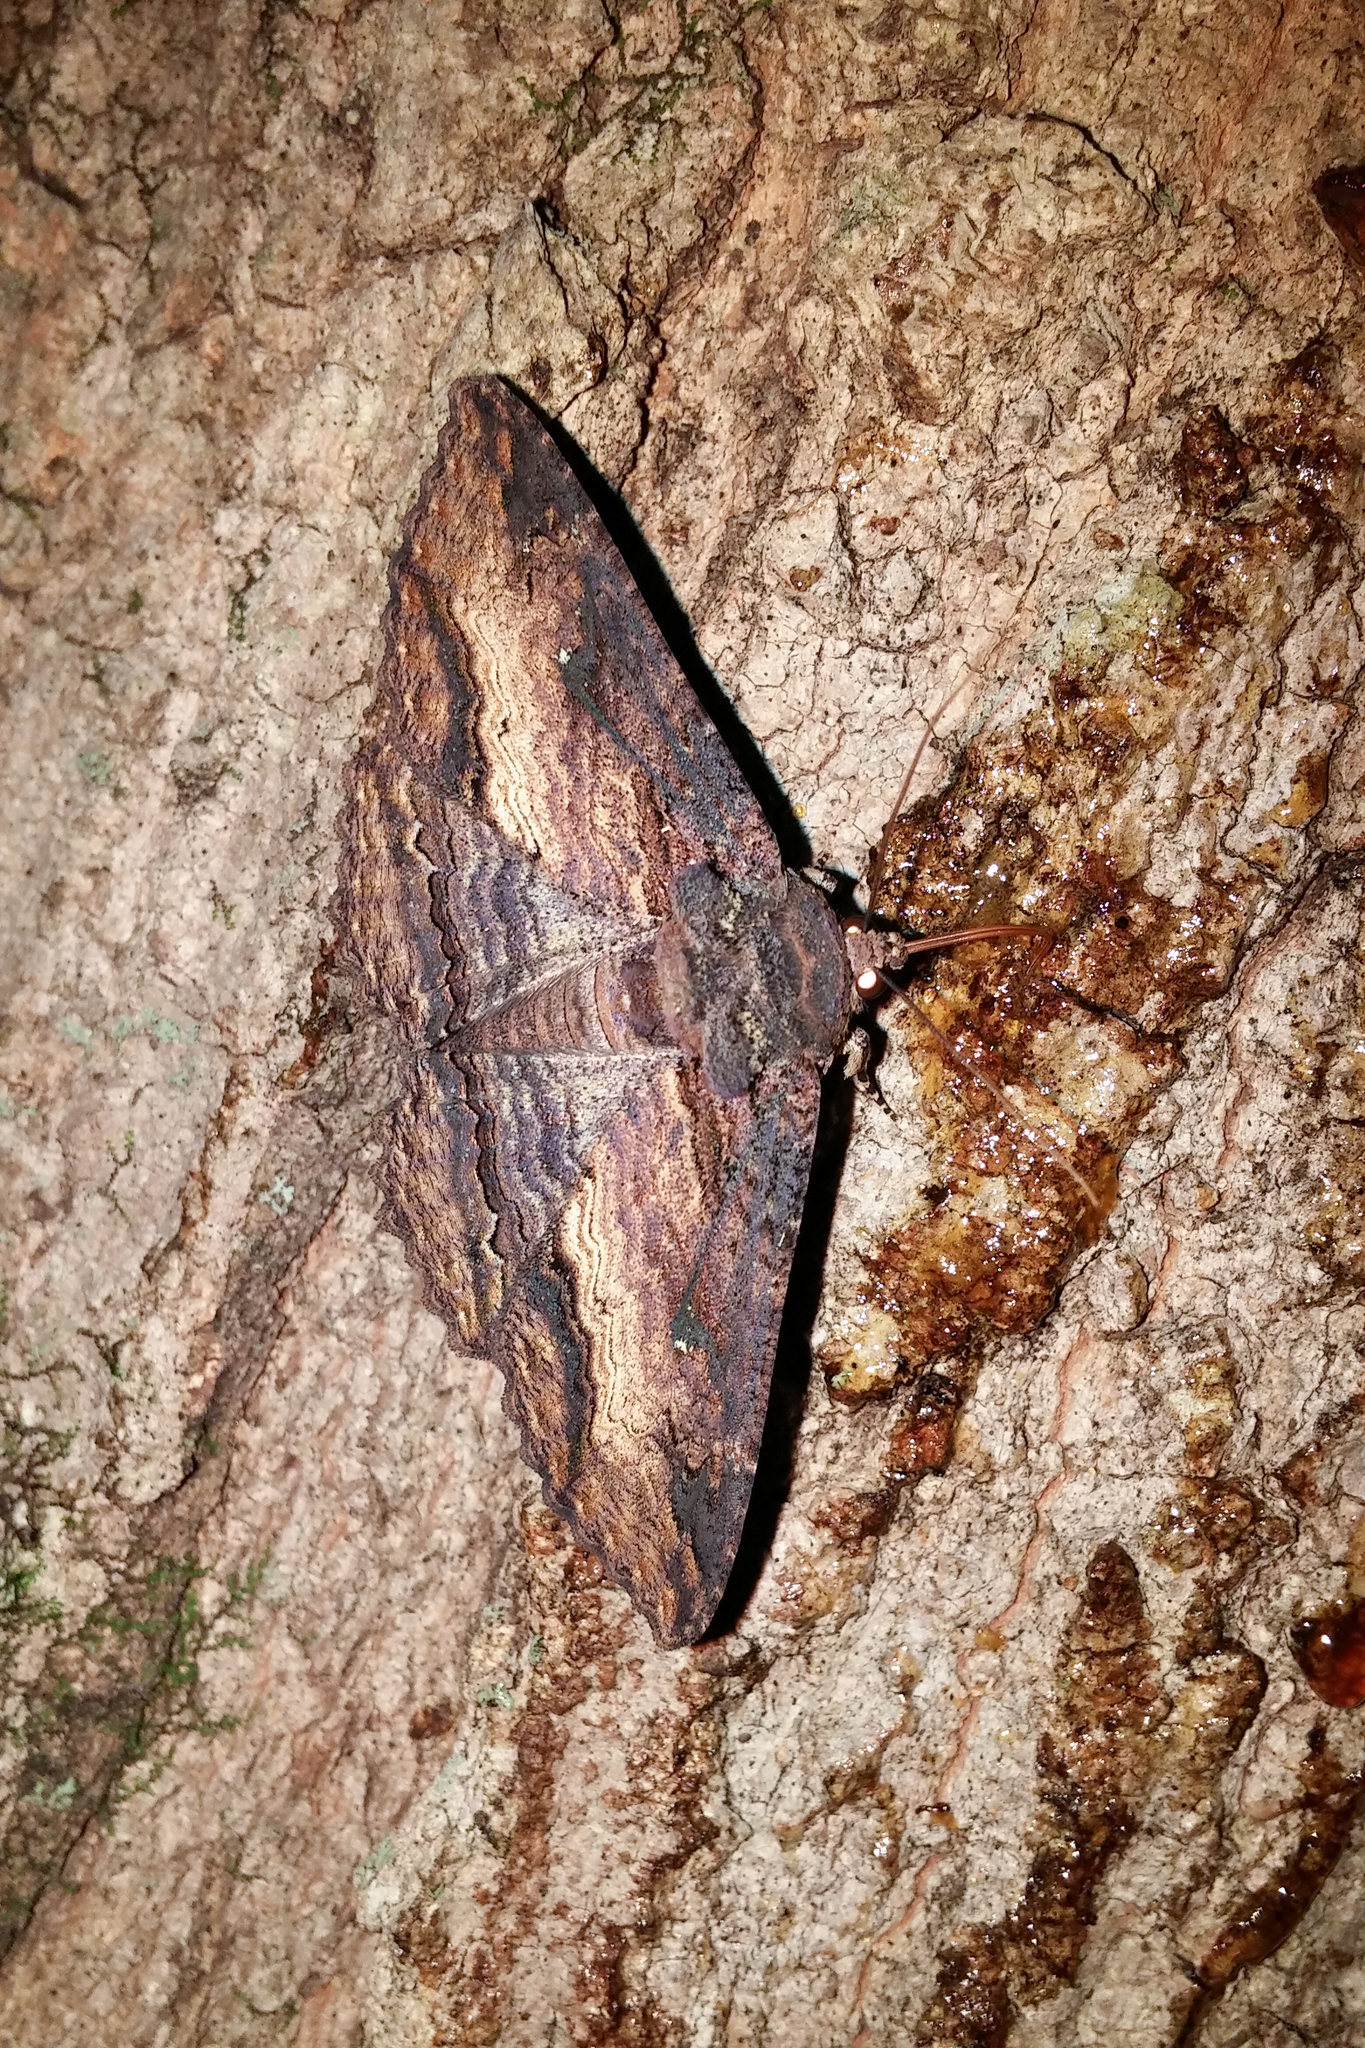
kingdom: Animalia
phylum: Arthropoda
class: Insecta
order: Lepidoptera
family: Erebidae
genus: Zale
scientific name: Zale lunata
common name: Lunate zale moth
